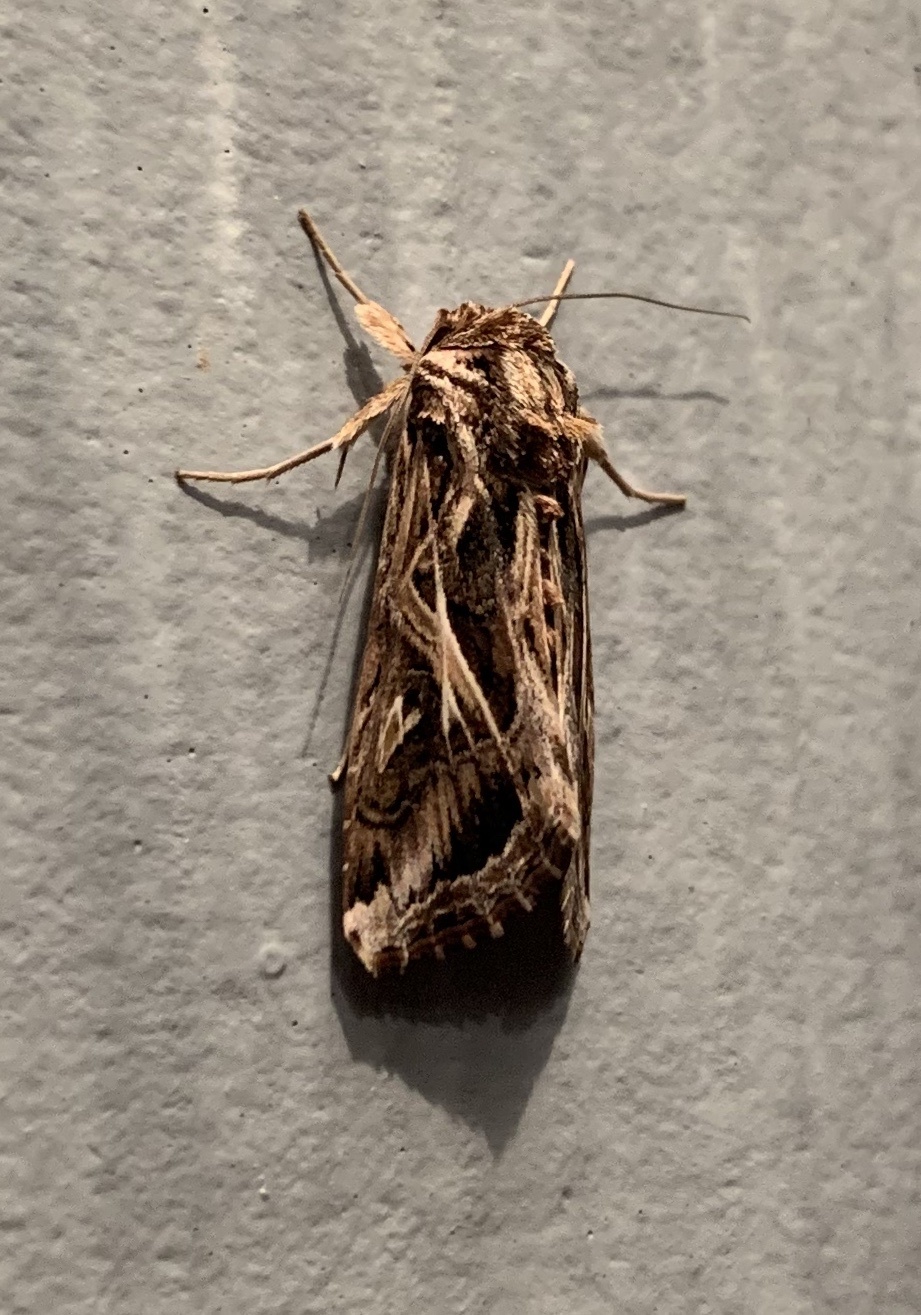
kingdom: Animalia
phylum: Arthropoda
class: Insecta
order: Lepidoptera
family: Noctuidae
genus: Spodoptera
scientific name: Spodoptera pulchella
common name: Caribbean armyworm moth
